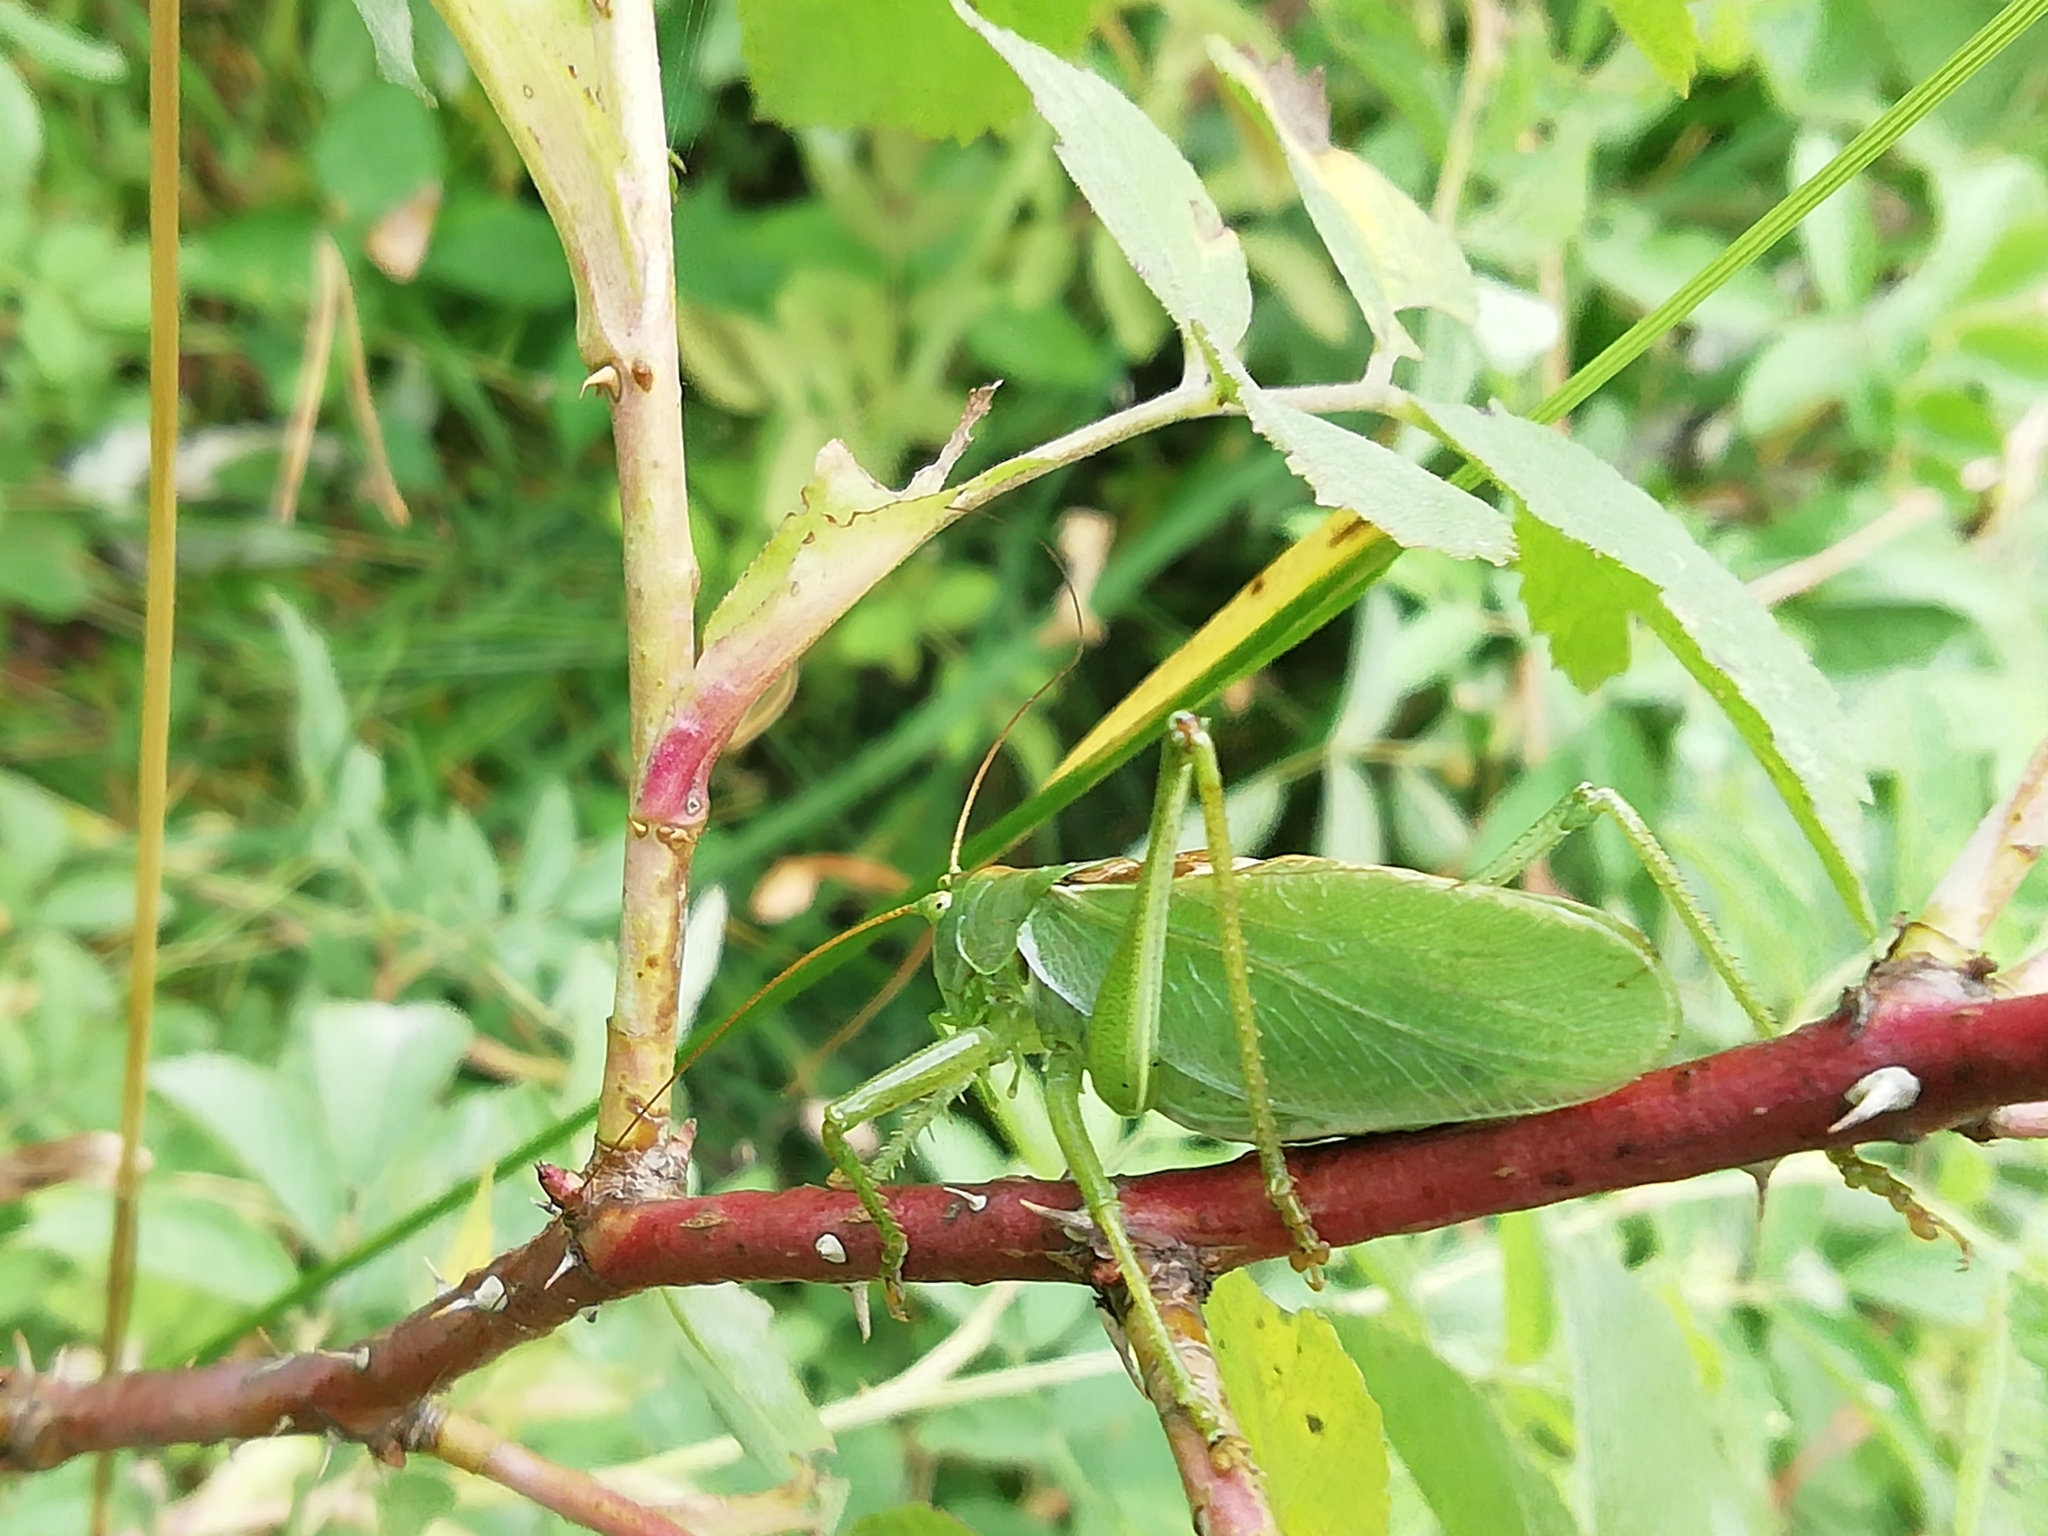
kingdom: Animalia
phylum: Arthropoda
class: Insecta
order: Orthoptera
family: Tettigoniidae
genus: Tettigonia
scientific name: Tettigonia cantans
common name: Upland green bush-cricket
